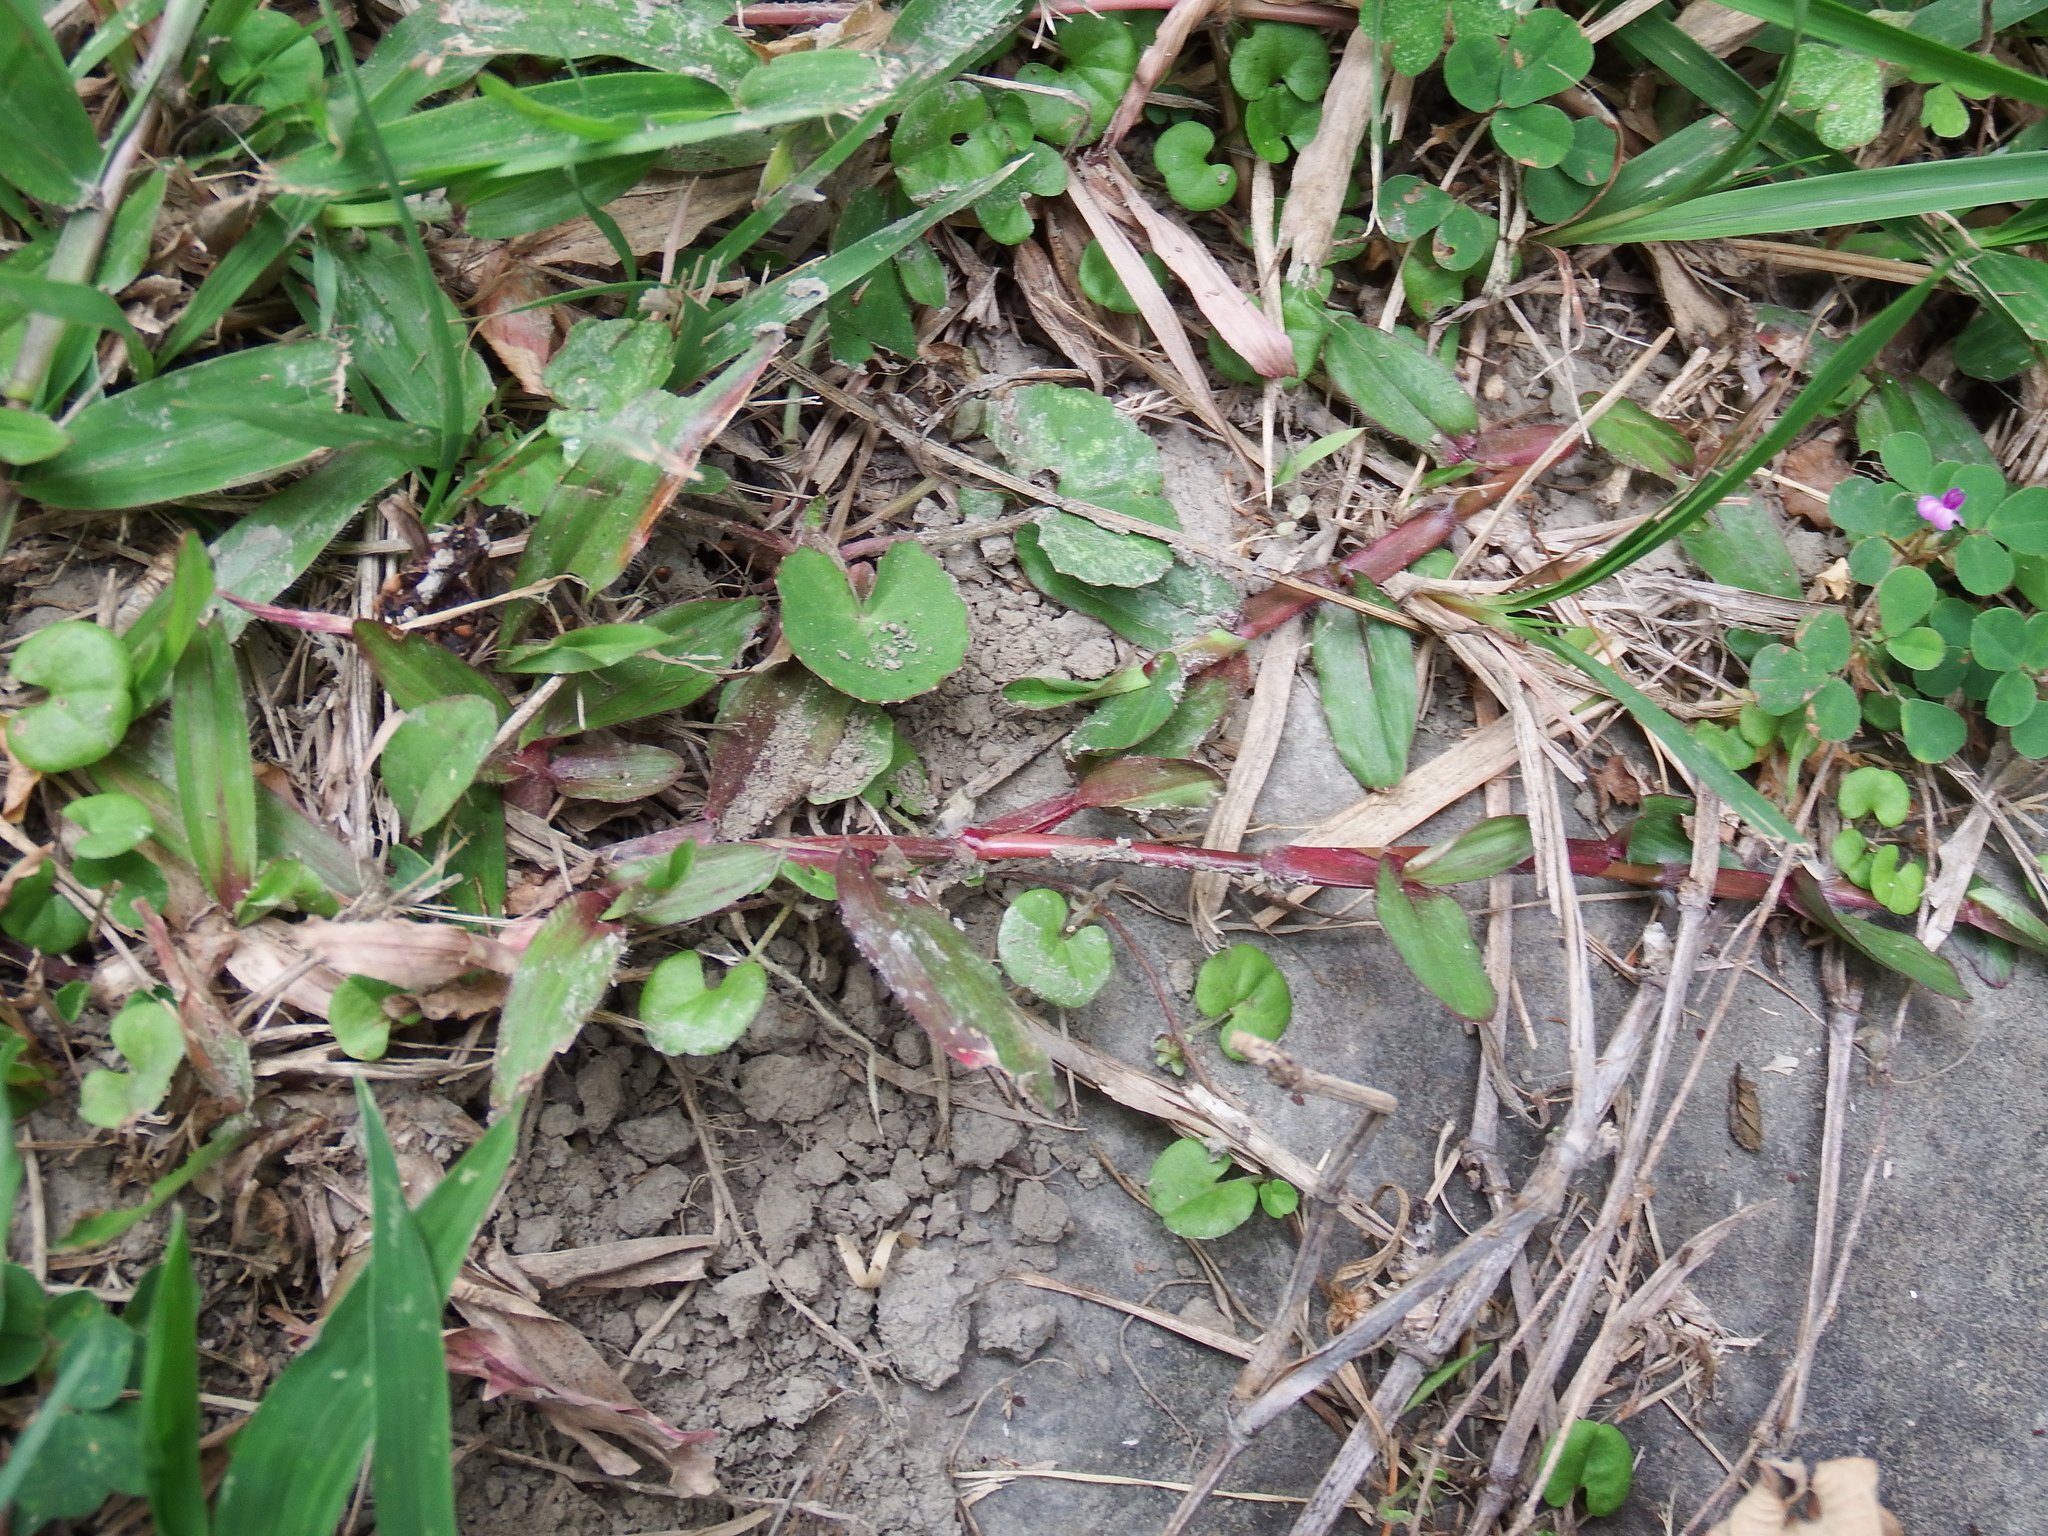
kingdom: Plantae
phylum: Tracheophyta
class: Magnoliopsida
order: Apiales
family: Apiaceae
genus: Centella
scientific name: Centella asiatica
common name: Spadeleaf
